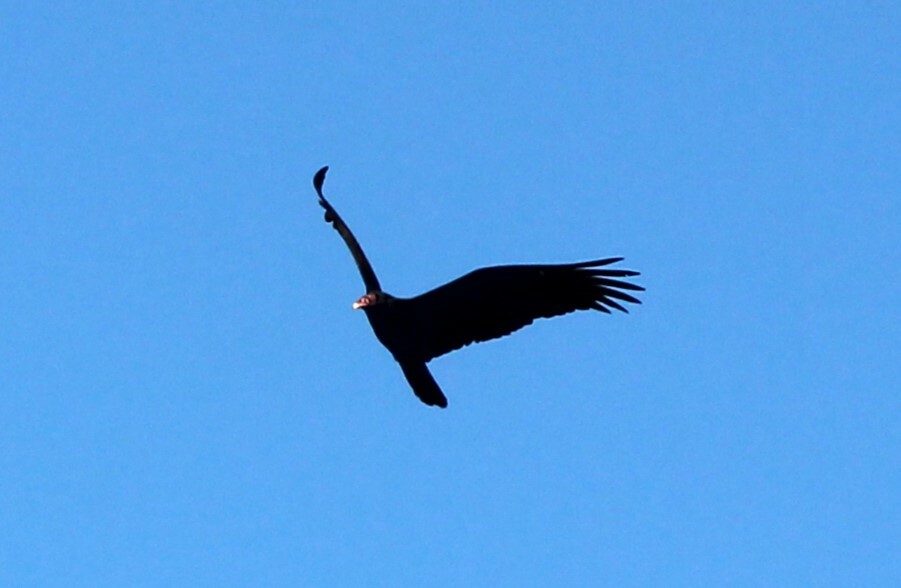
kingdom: Animalia
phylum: Chordata
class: Aves
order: Accipitriformes
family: Cathartidae
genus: Cathartes
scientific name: Cathartes aura
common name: Turkey vulture
